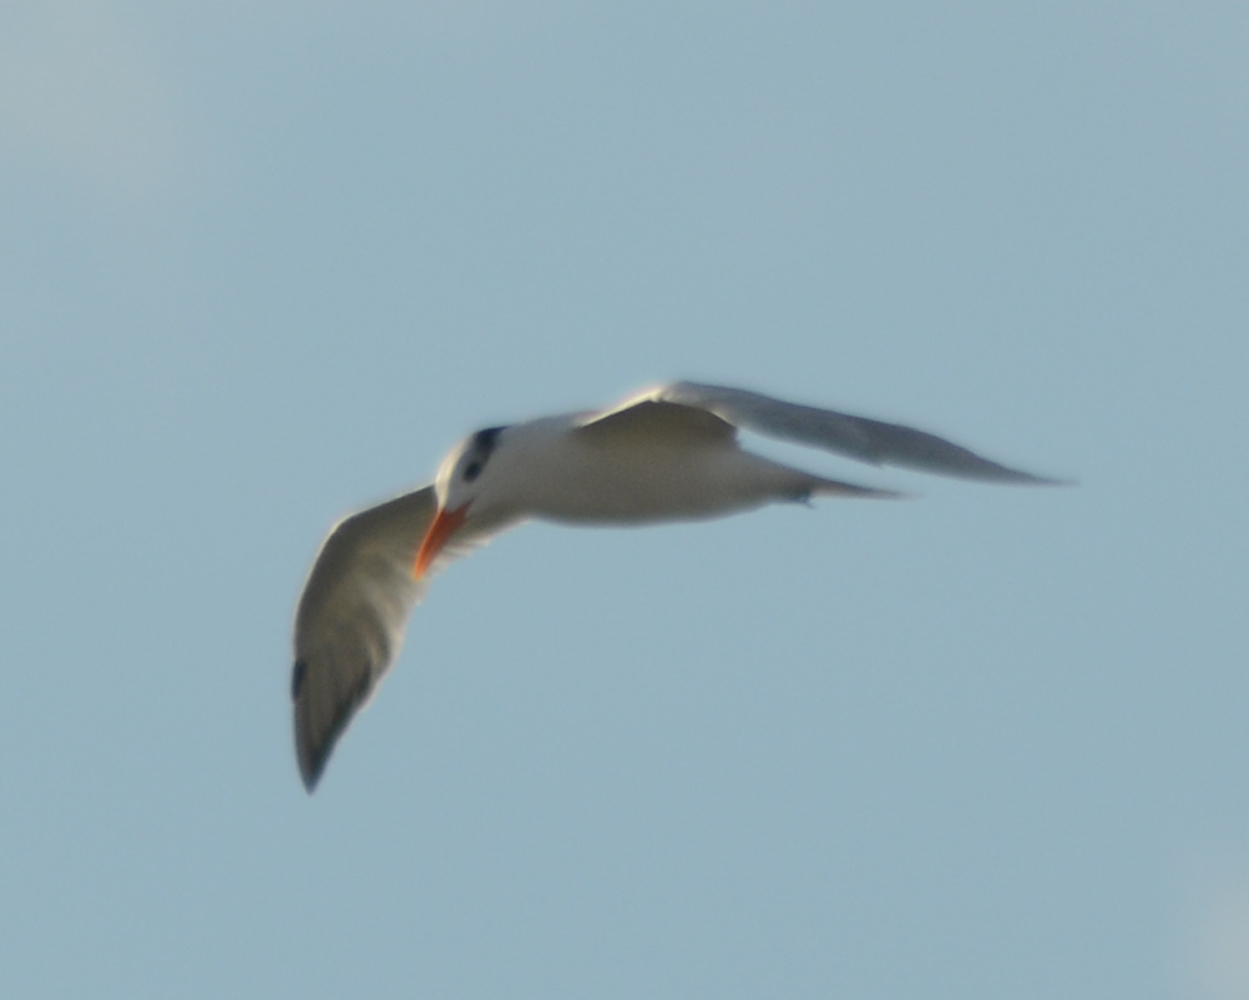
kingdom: Animalia
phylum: Chordata
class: Aves
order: Charadriiformes
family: Laridae
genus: Thalasseus
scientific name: Thalasseus maximus
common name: Royal tern
